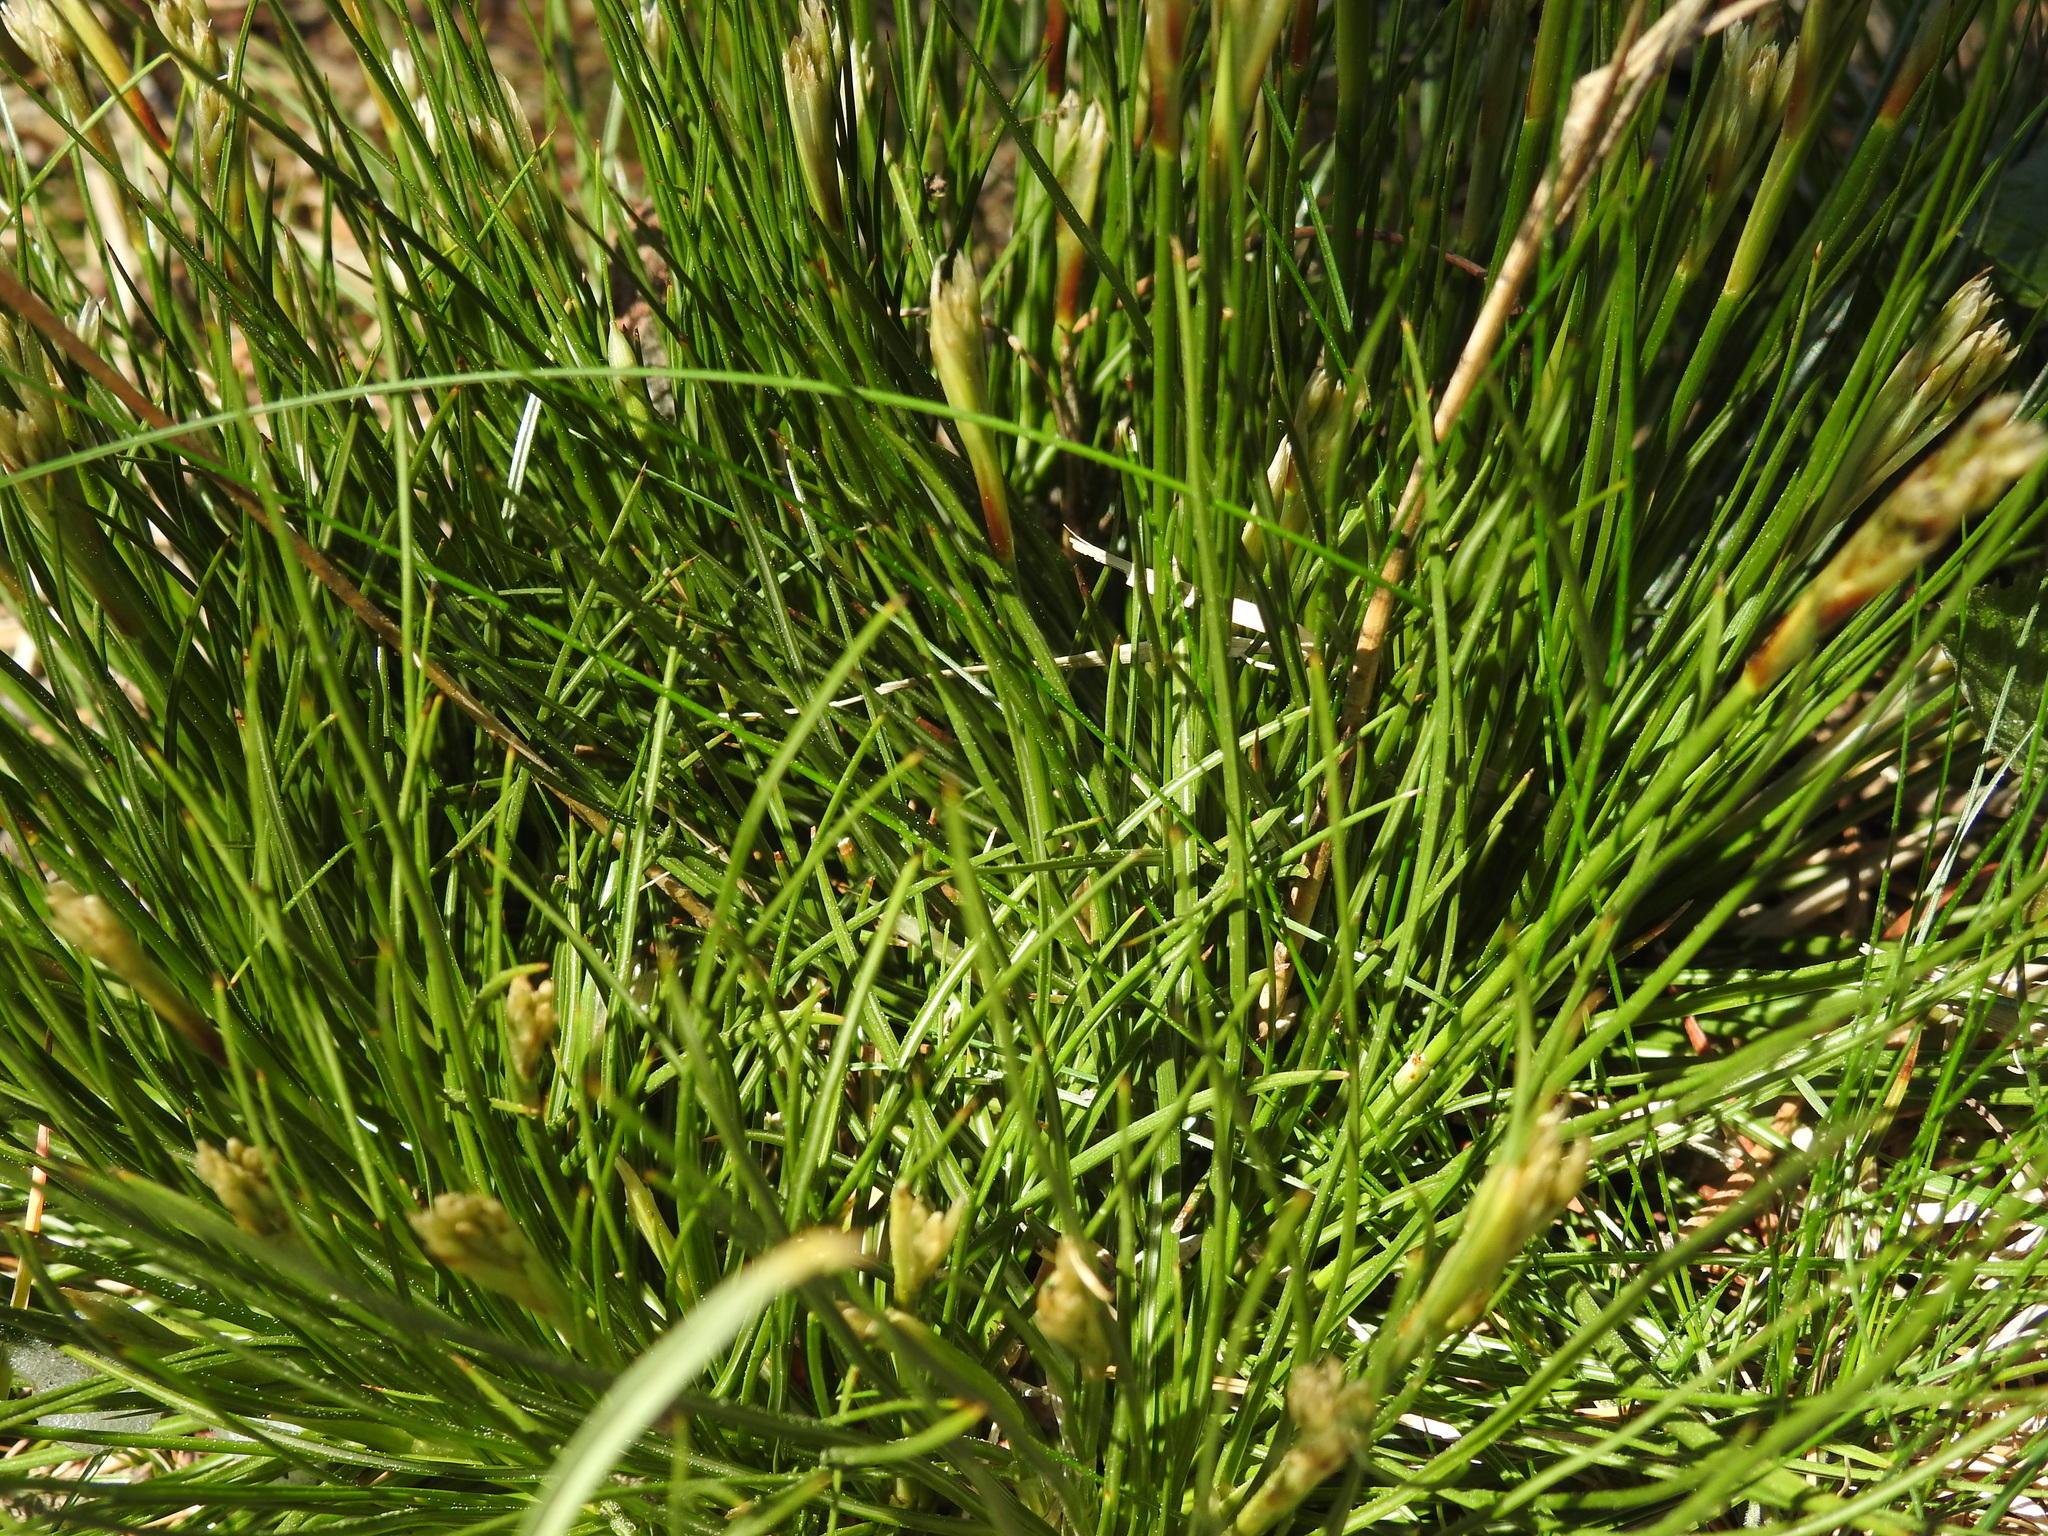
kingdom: Plantae
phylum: Tracheophyta
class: Liliopsida
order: Poales
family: Juncaceae
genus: Juncus
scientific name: Juncus squarrosus
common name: Heath rush
